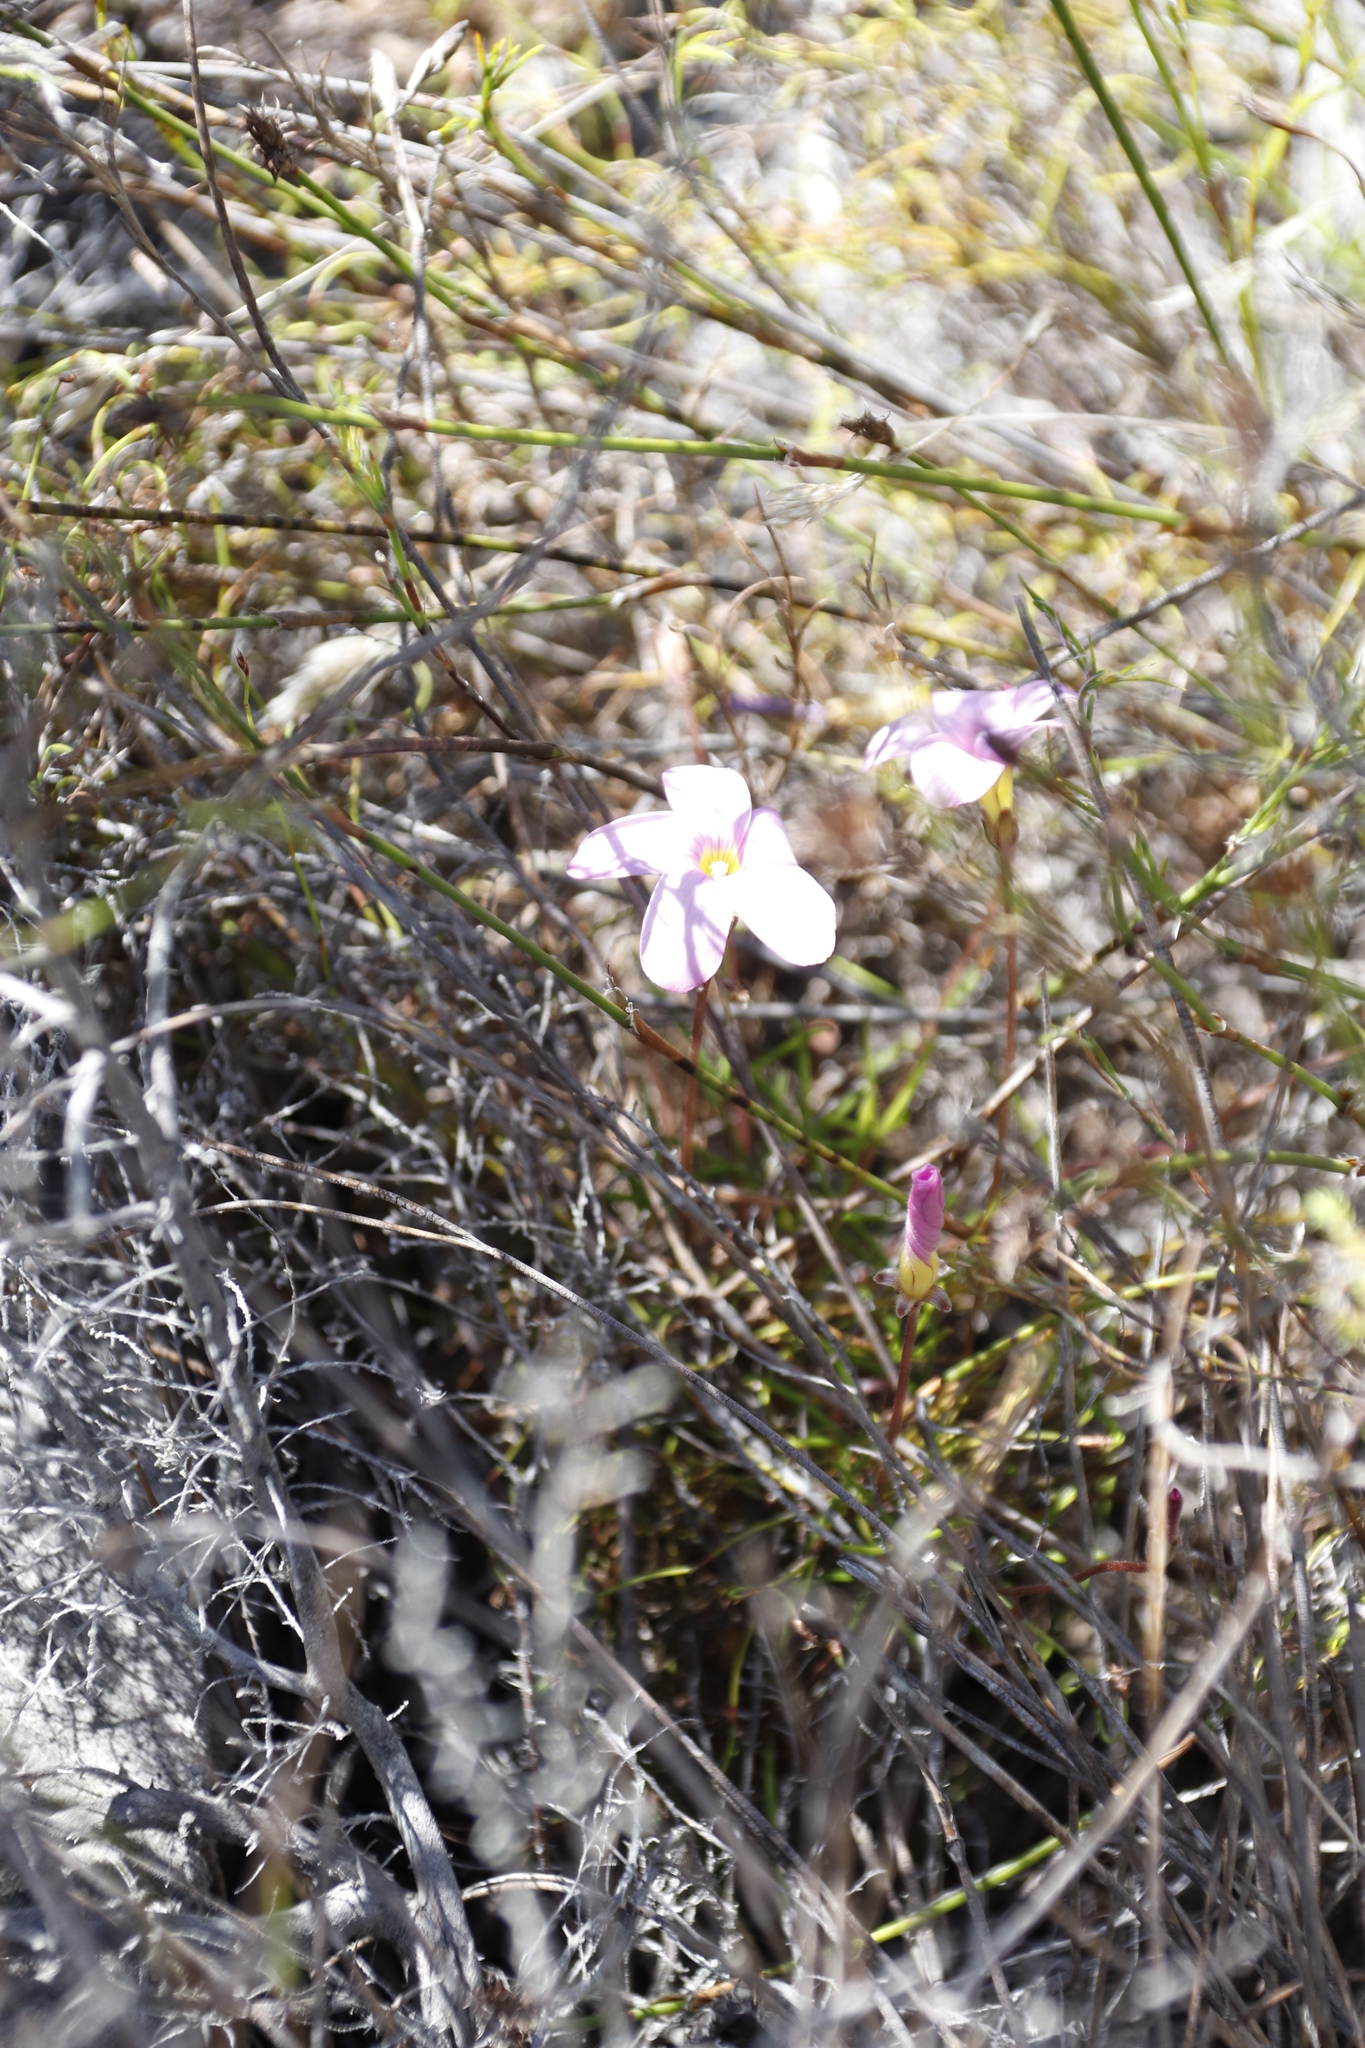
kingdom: Plantae
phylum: Tracheophyta
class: Magnoliopsida
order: Oxalidales
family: Oxalidaceae
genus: Oxalis
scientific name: Oxalis polyphylla
